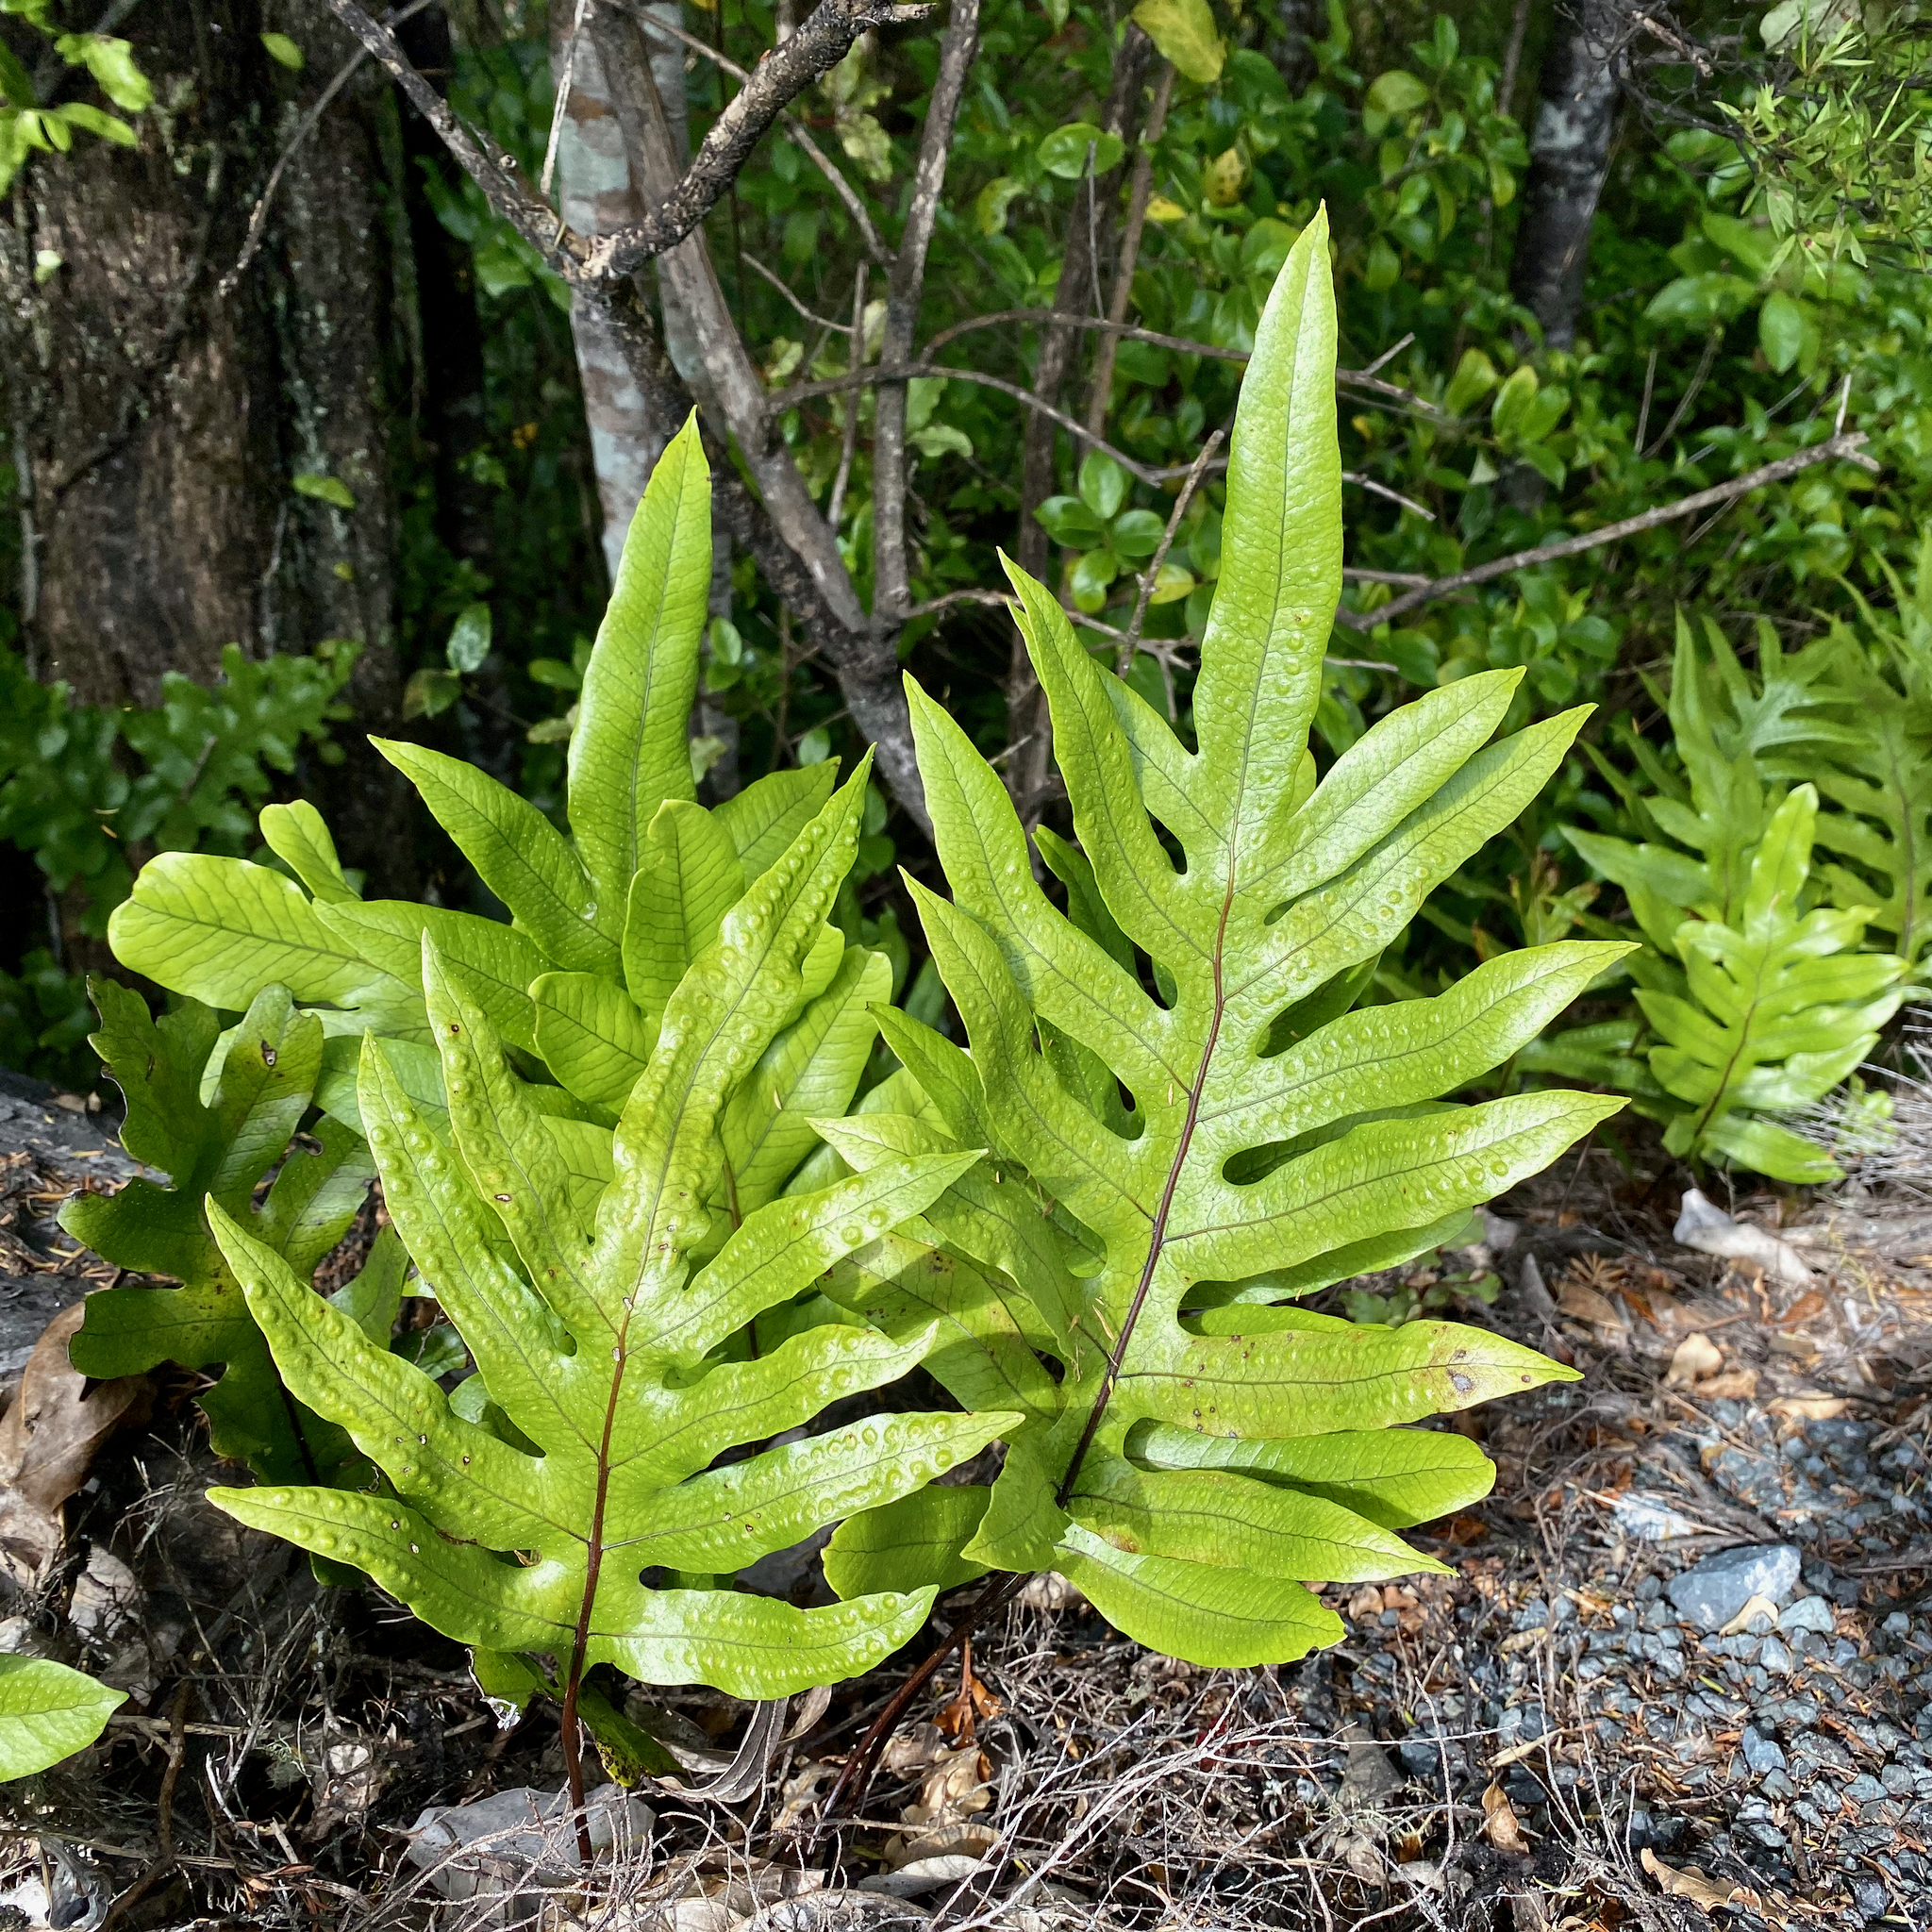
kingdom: Plantae
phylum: Tracheophyta
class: Polypodiopsida
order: Polypodiales
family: Polypodiaceae
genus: Lecanopteris
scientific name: Lecanopteris pustulata
